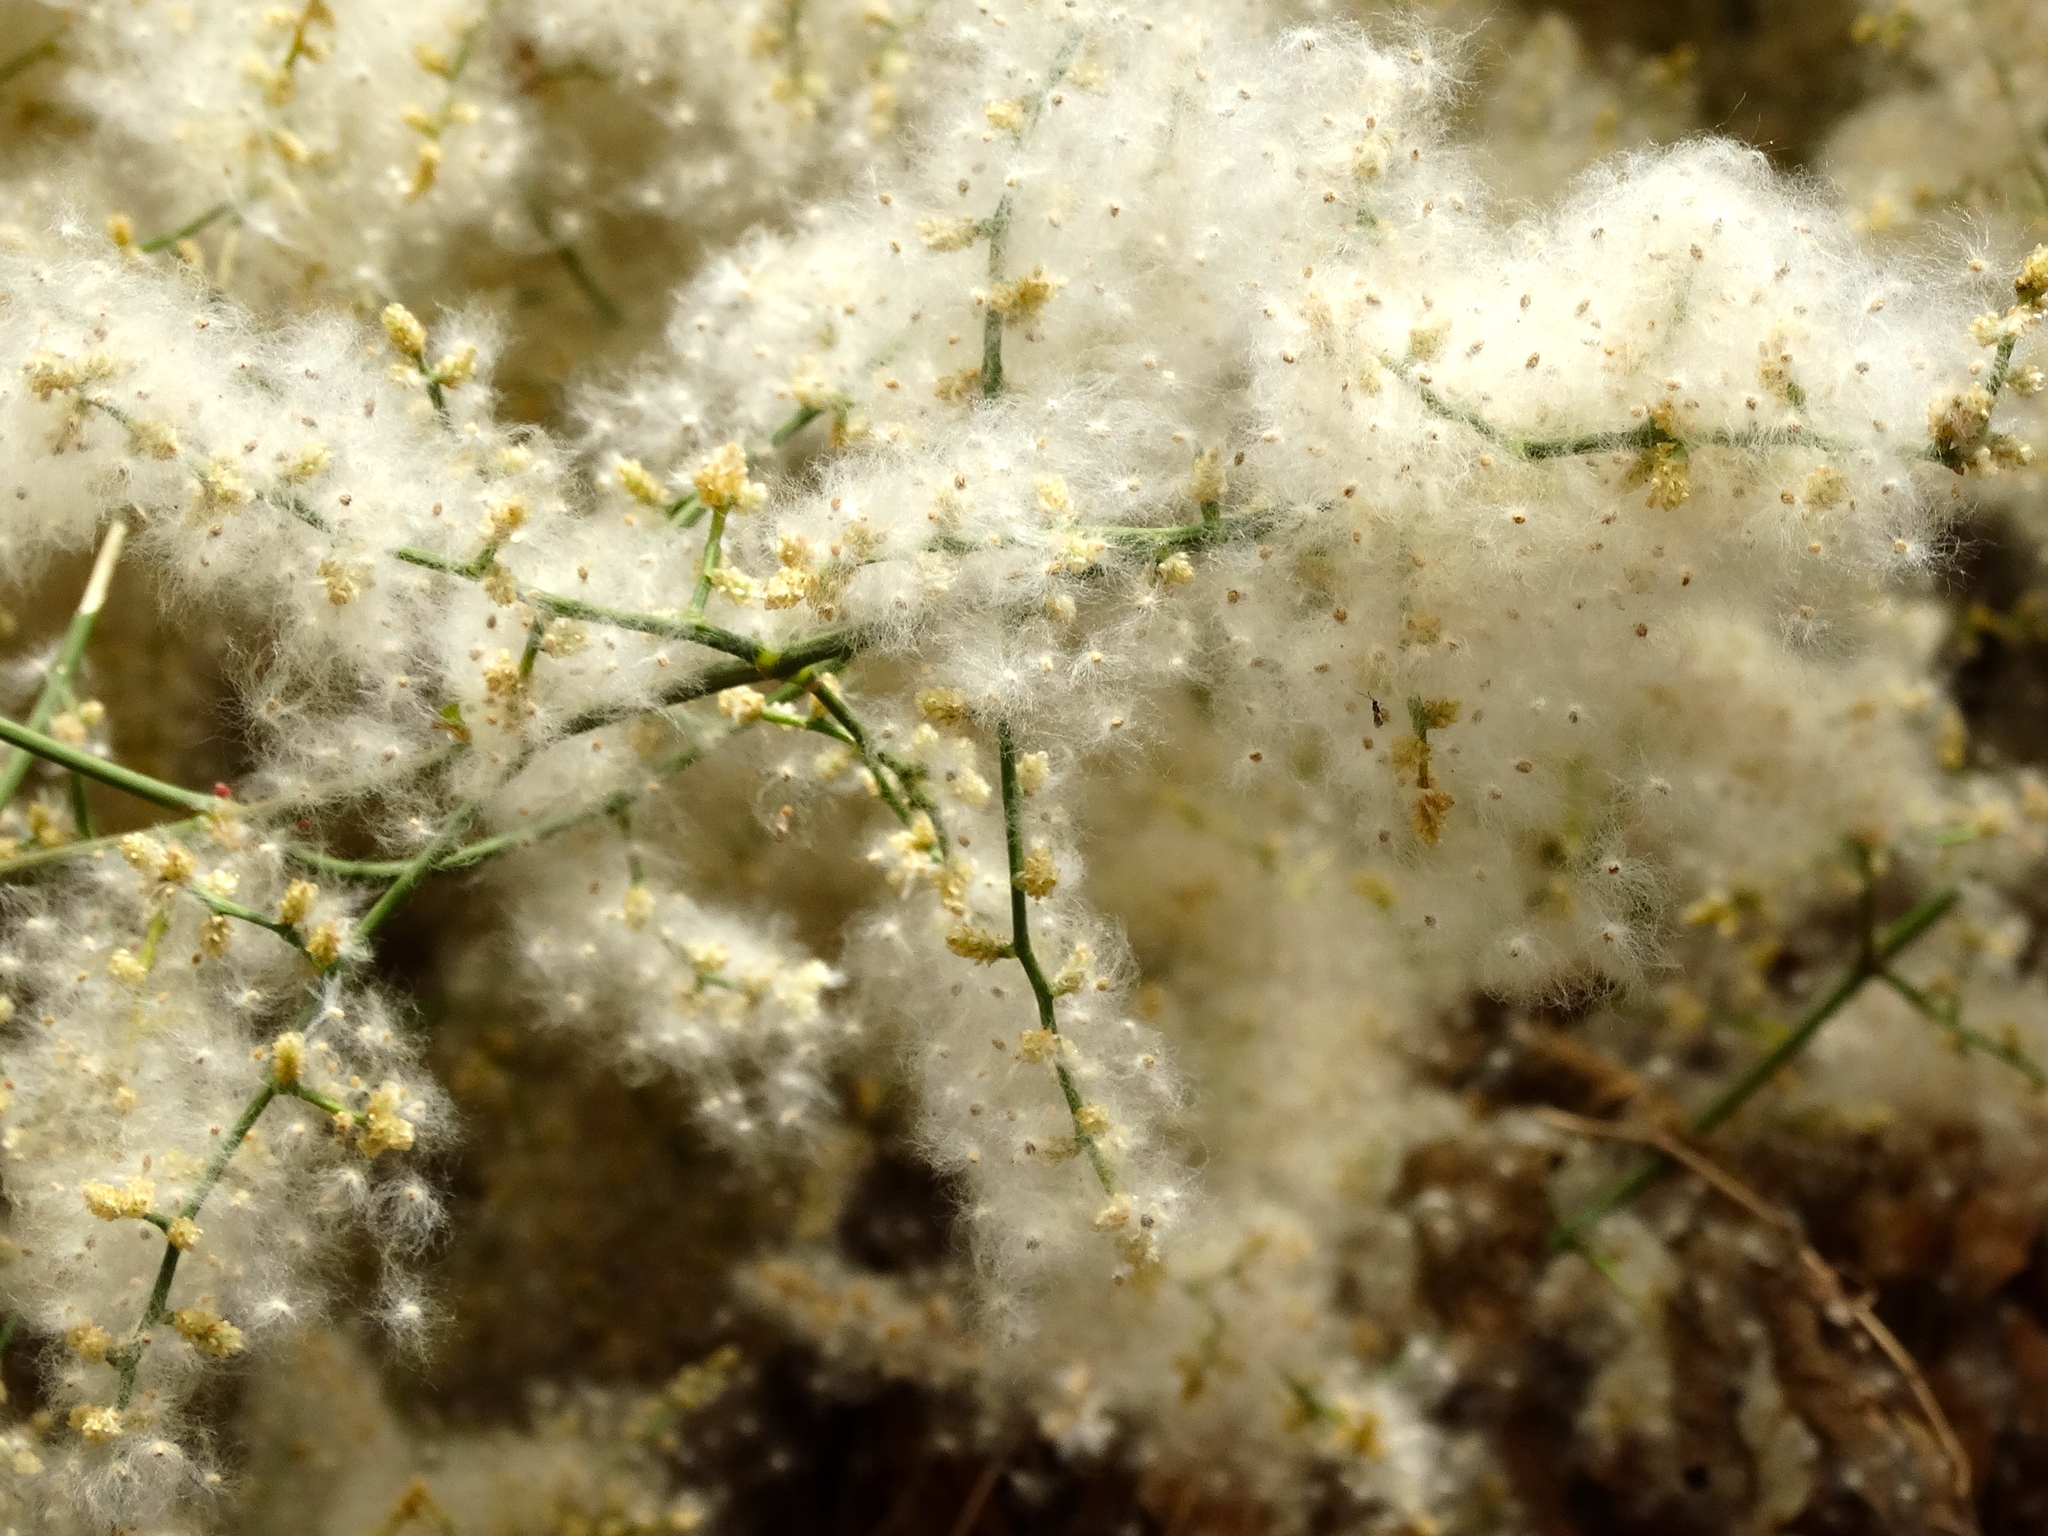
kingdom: Plantae
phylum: Tracheophyta
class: Magnoliopsida
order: Caryophyllales
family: Amaranthaceae
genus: Iresine
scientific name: Iresine diffusa
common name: Juba's-bush
